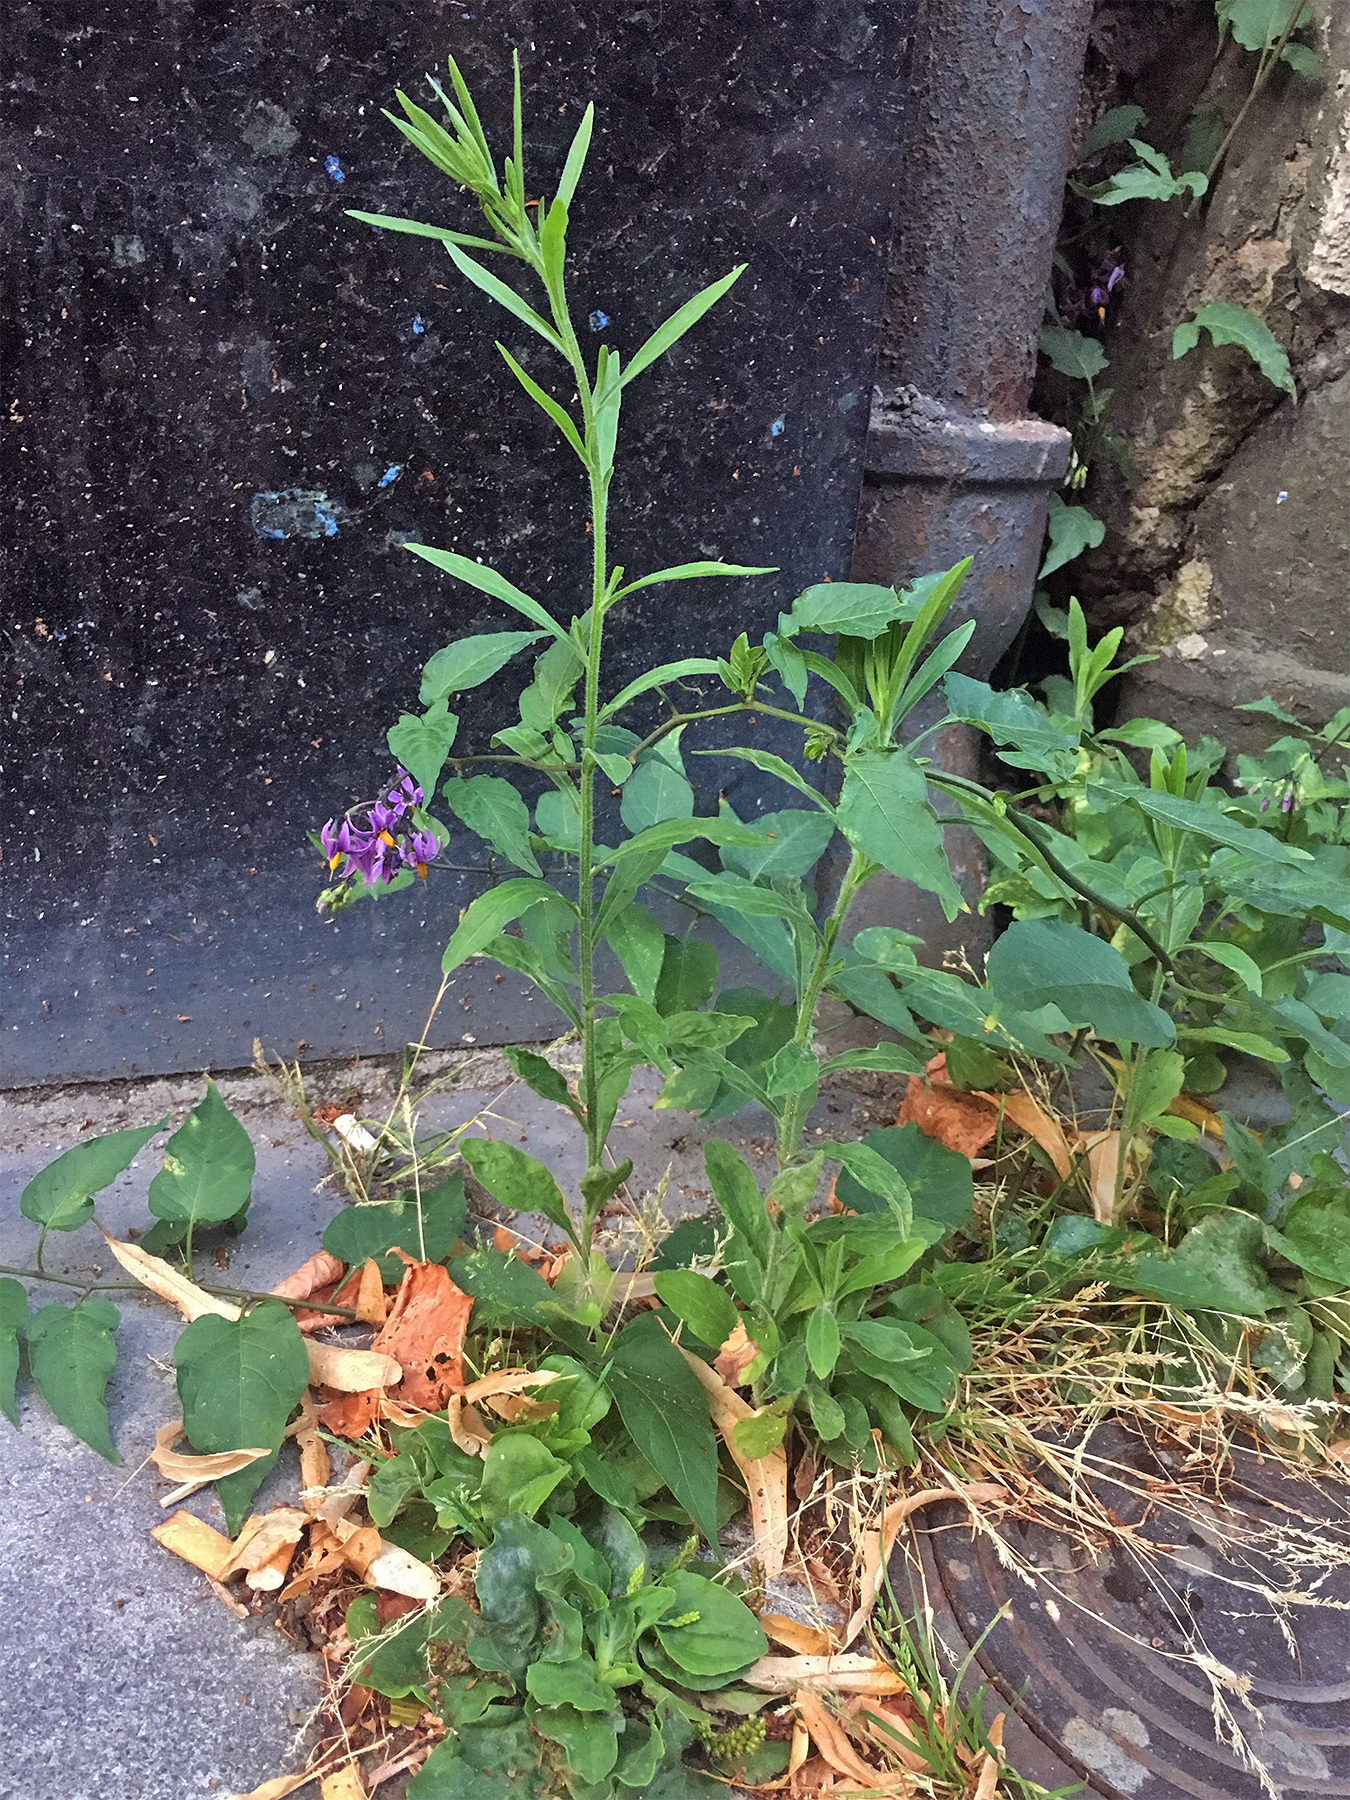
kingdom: Plantae
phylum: Tracheophyta
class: Magnoliopsida
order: Solanales
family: Solanaceae
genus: Solanum
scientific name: Solanum dulcamara
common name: Climbing nightshade
